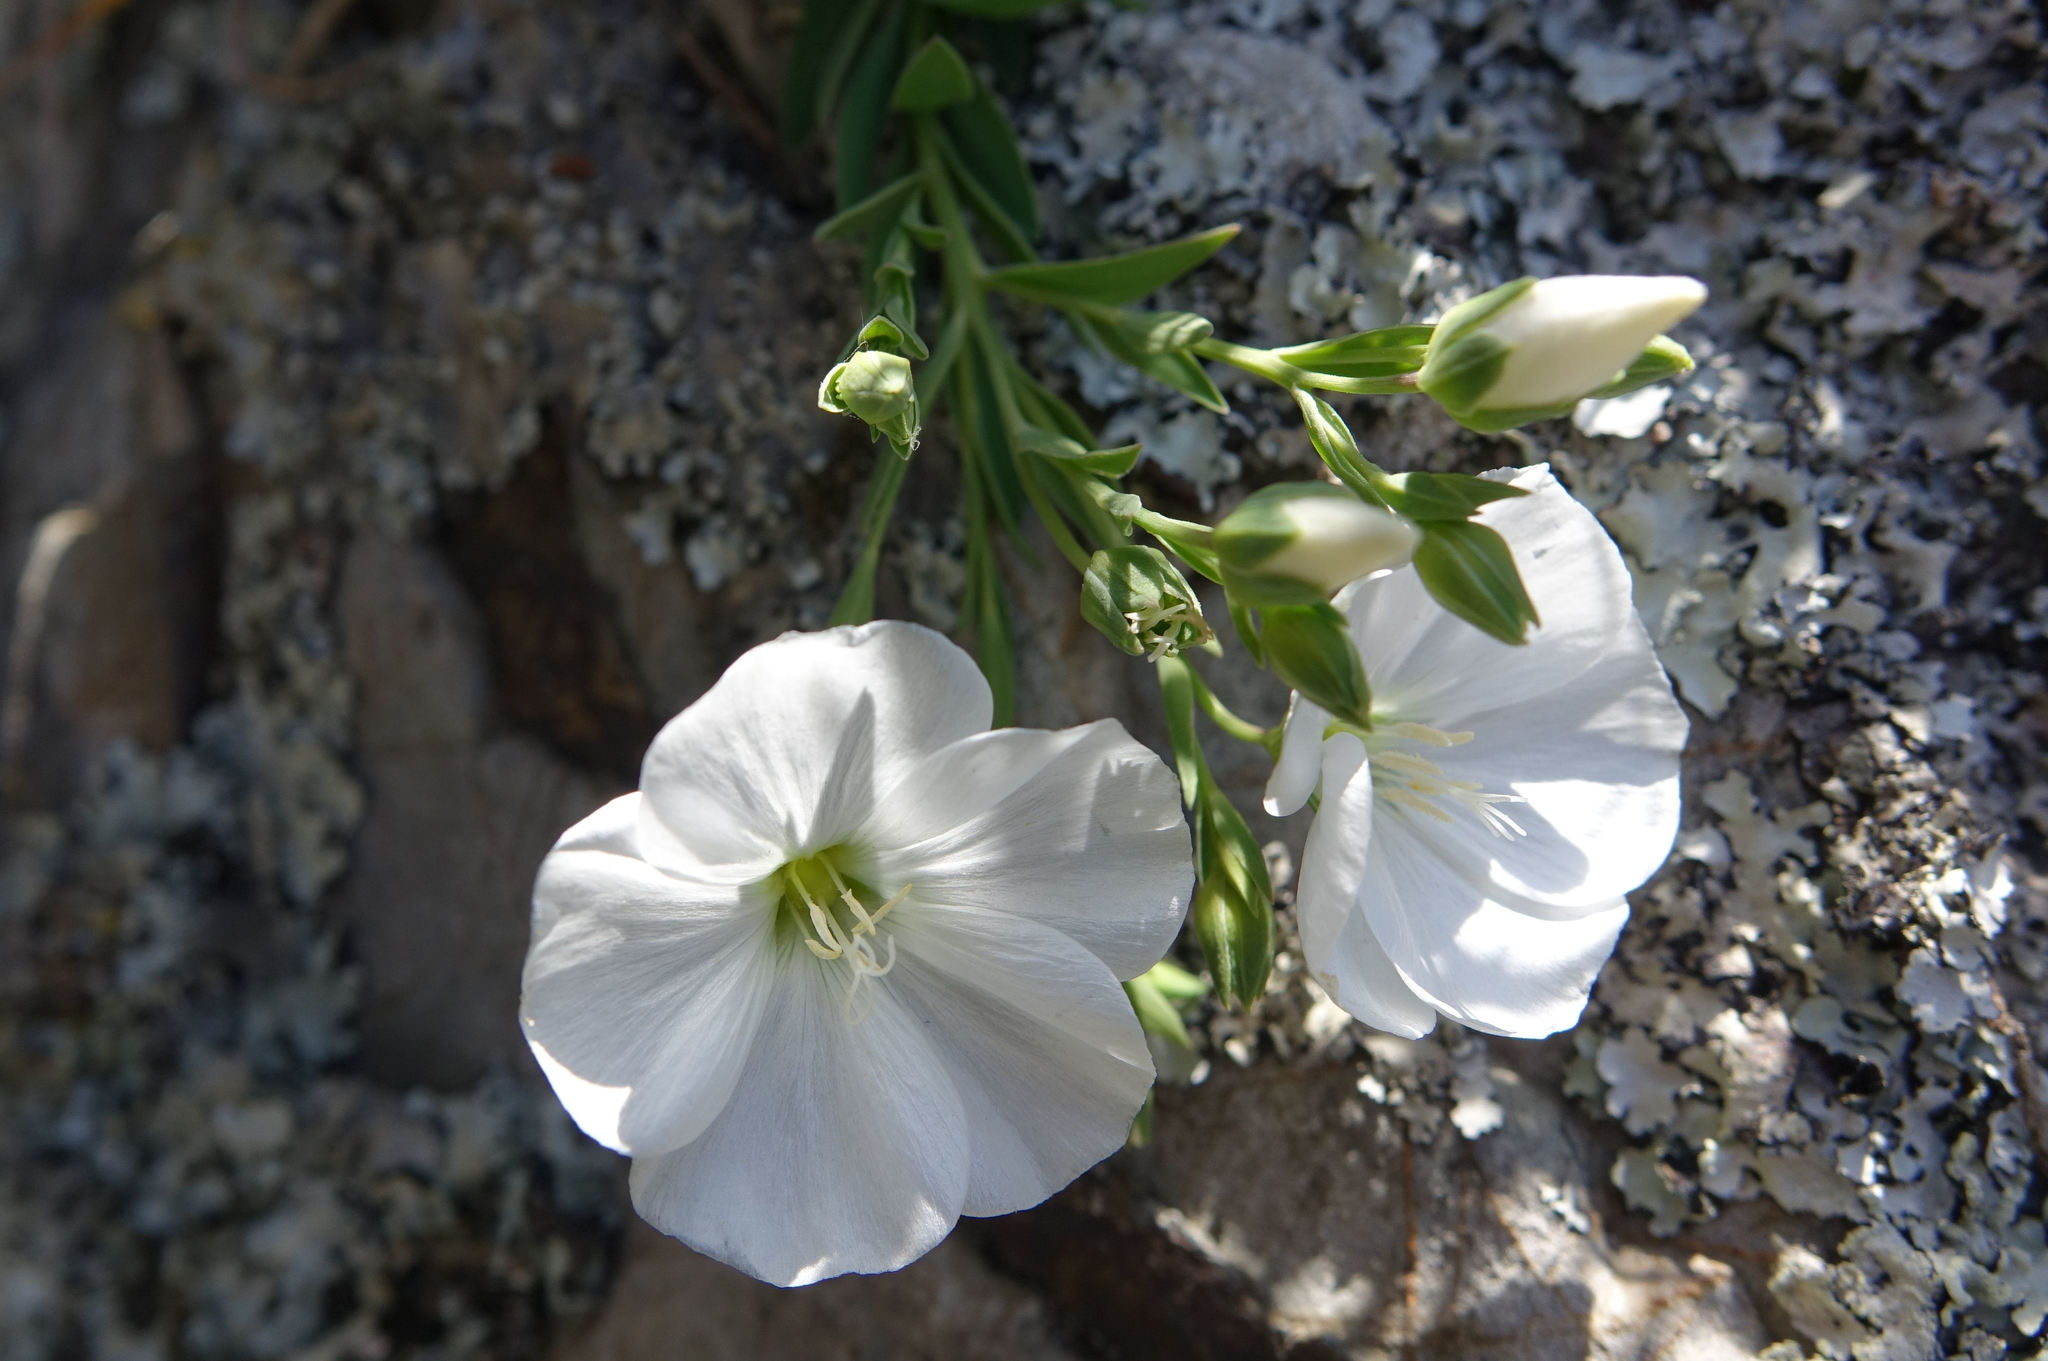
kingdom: Plantae
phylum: Tracheophyta
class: Magnoliopsida
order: Malpighiales
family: Linaceae
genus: Linum
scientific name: Linum monogynum
